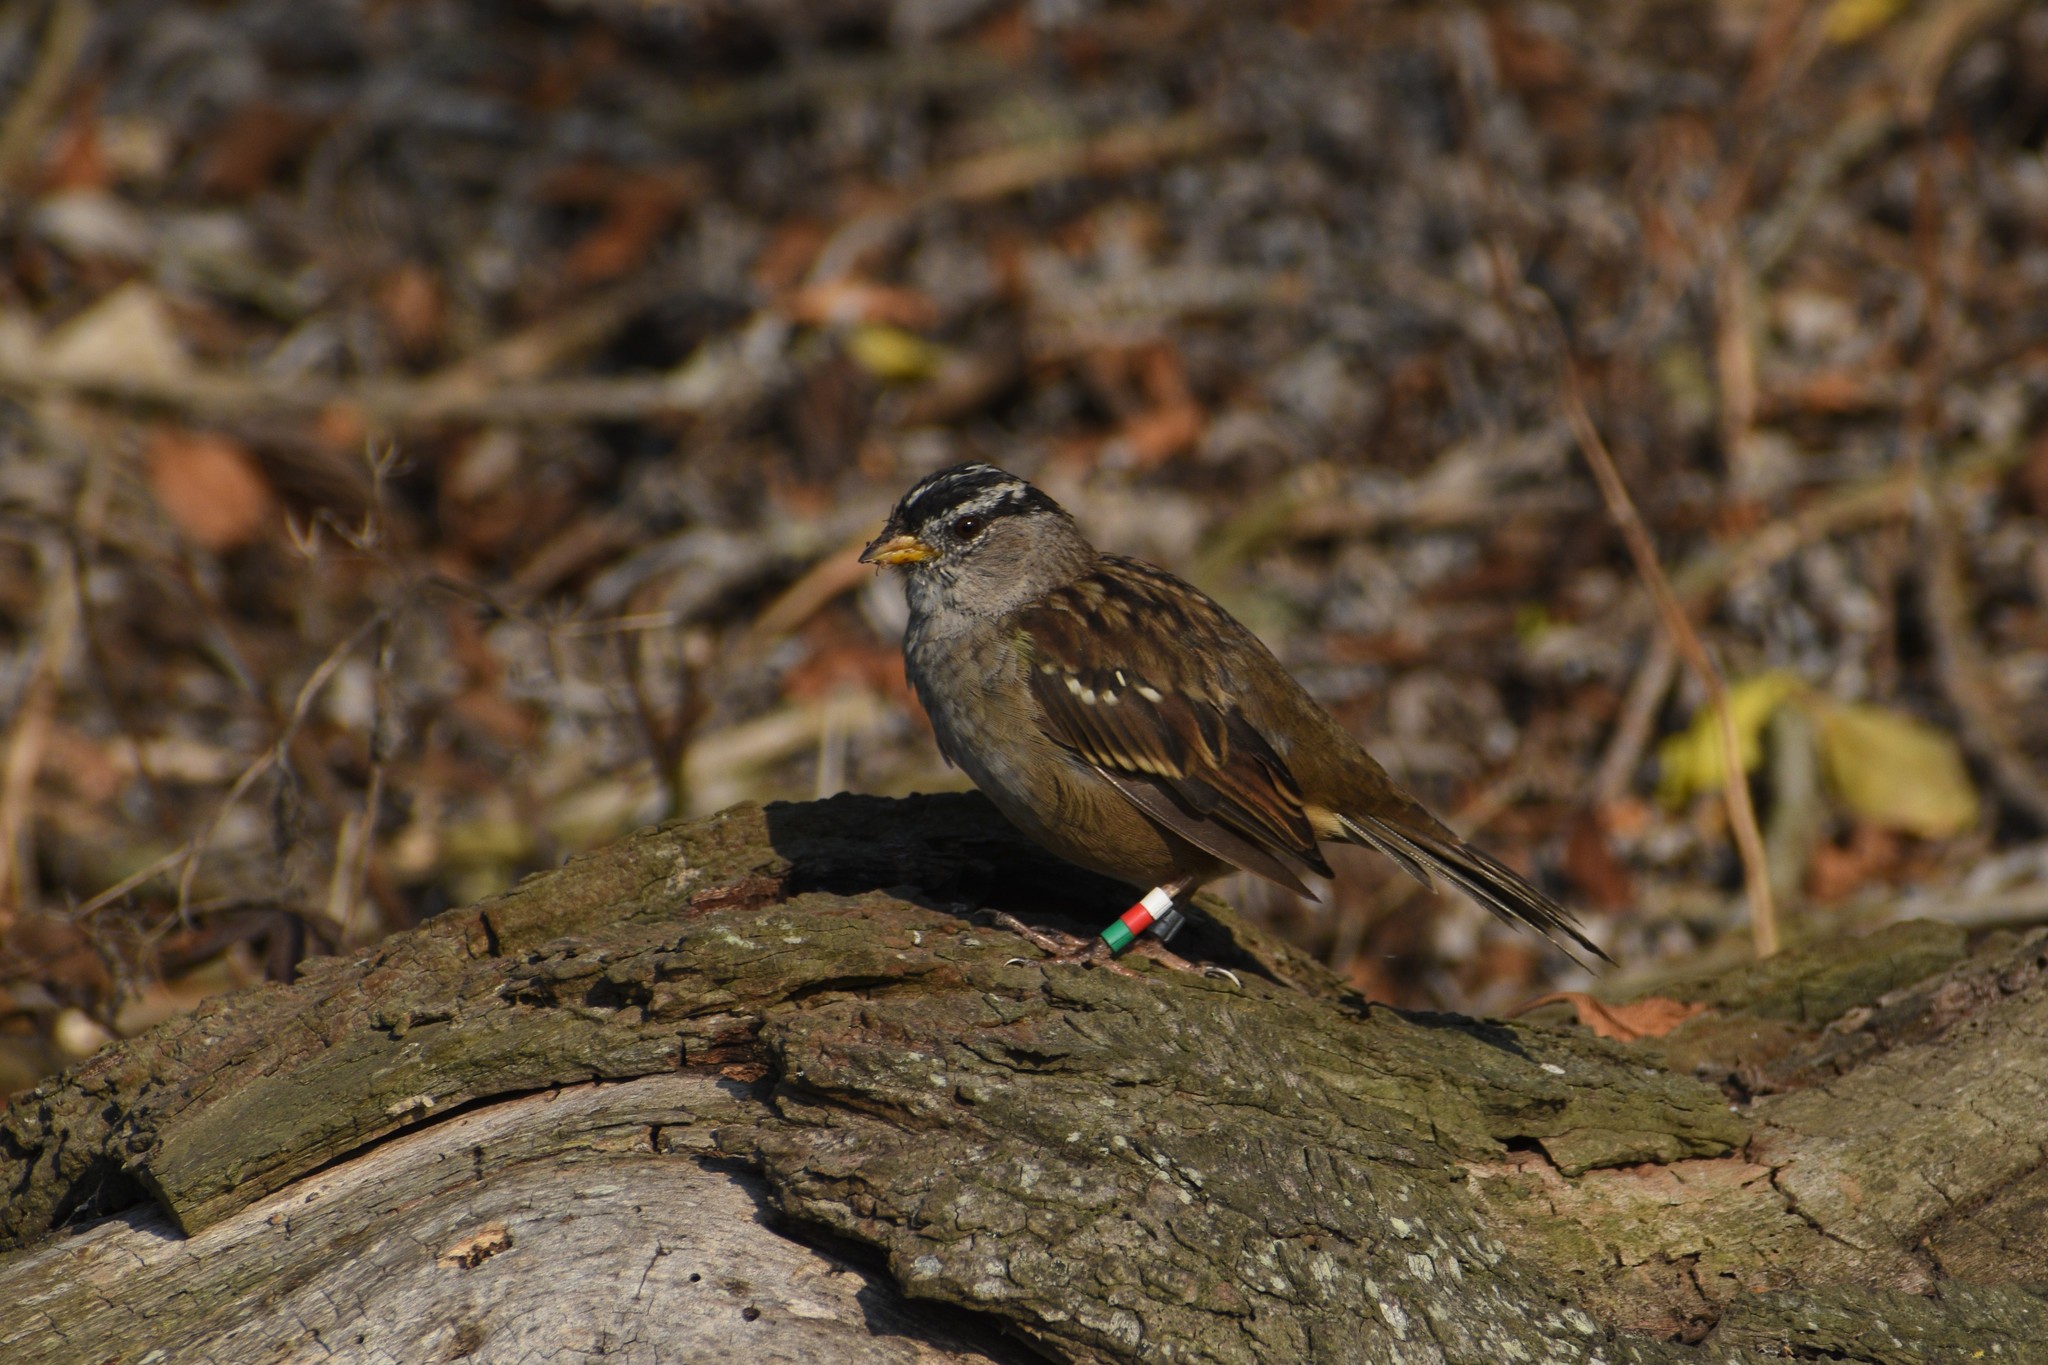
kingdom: Animalia
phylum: Chordata
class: Aves
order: Passeriformes
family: Passerellidae
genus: Zonotrichia
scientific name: Zonotrichia leucophrys
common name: White-crowned sparrow
